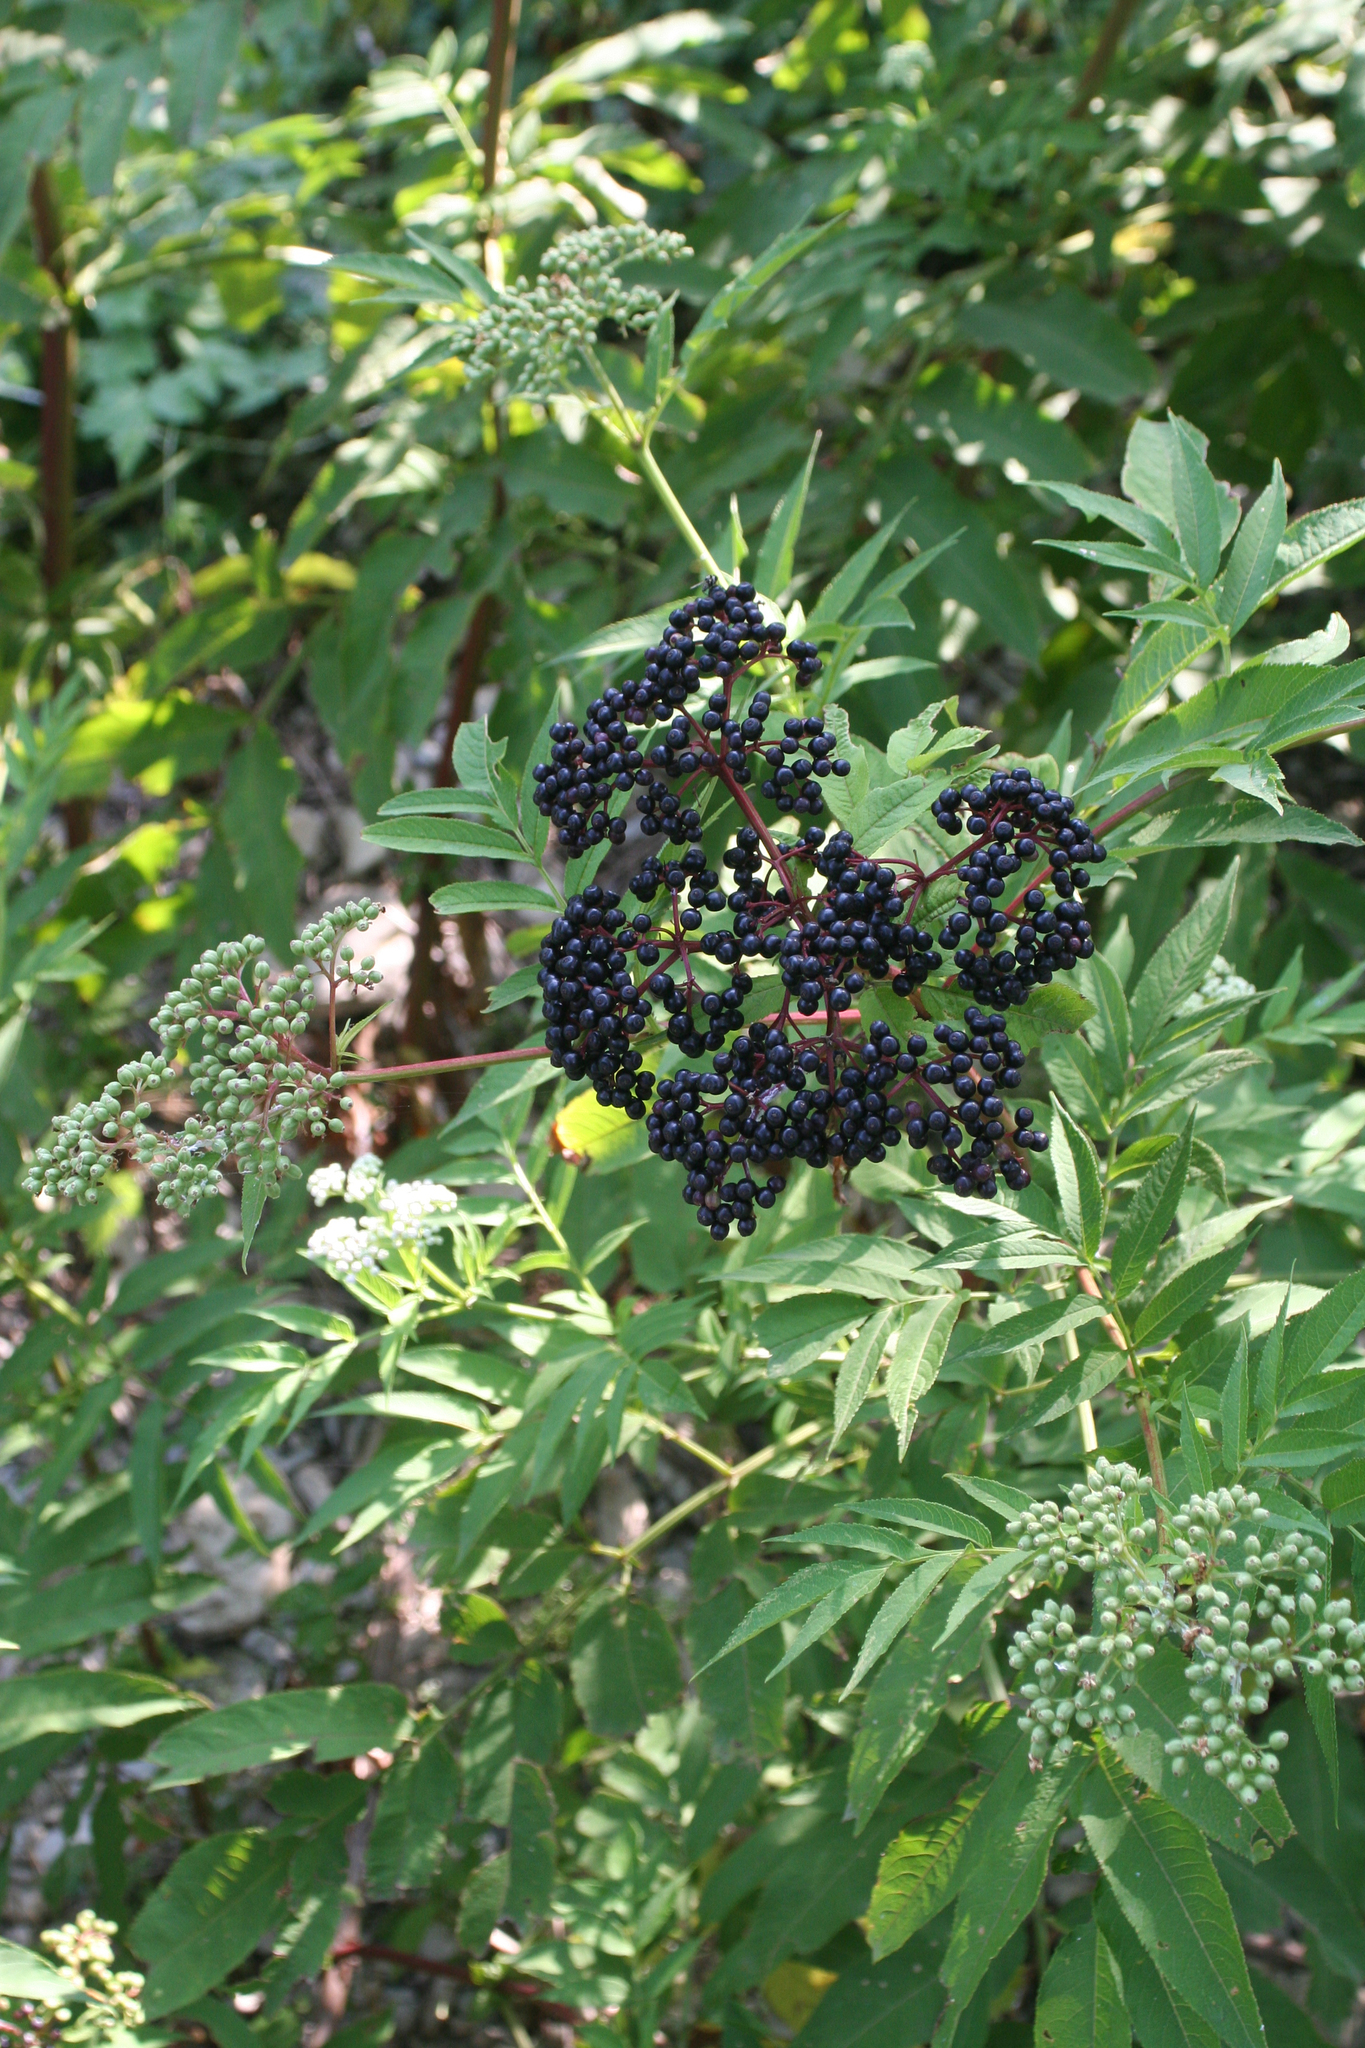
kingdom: Plantae
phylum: Tracheophyta
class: Magnoliopsida
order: Dipsacales
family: Viburnaceae
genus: Sambucus
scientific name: Sambucus ebulus
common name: Dwarf elder
